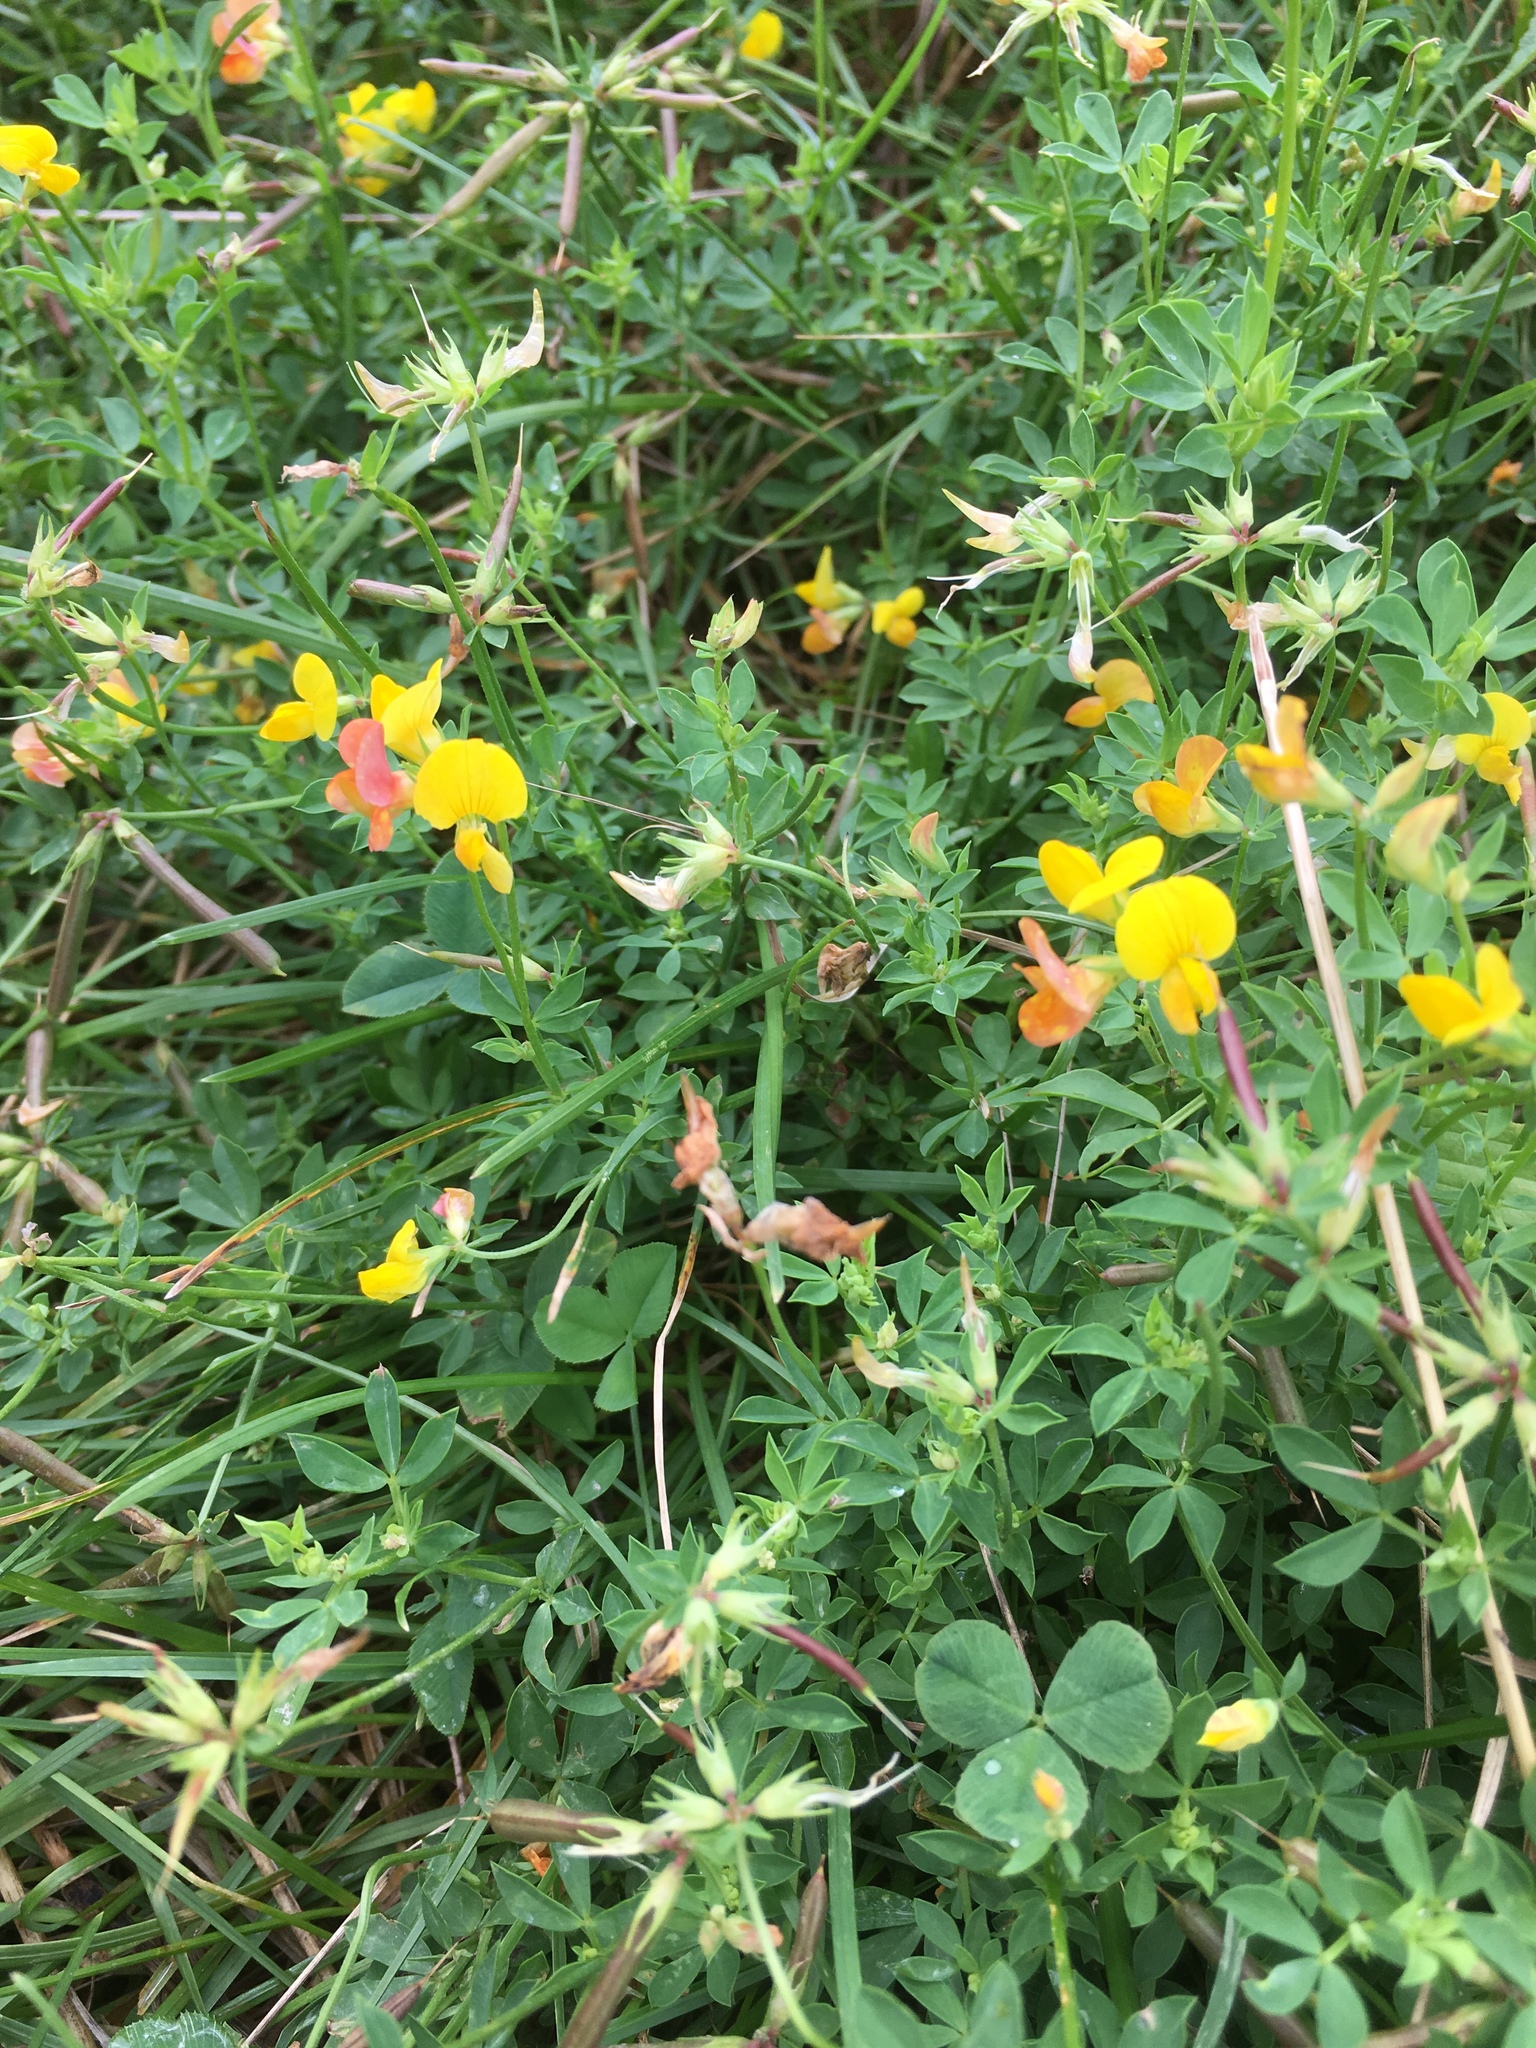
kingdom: Plantae
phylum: Tracheophyta
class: Magnoliopsida
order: Fabales
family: Fabaceae
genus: Lotus
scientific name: Lotus corniculatus
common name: Common bird's-foot-trefoil
